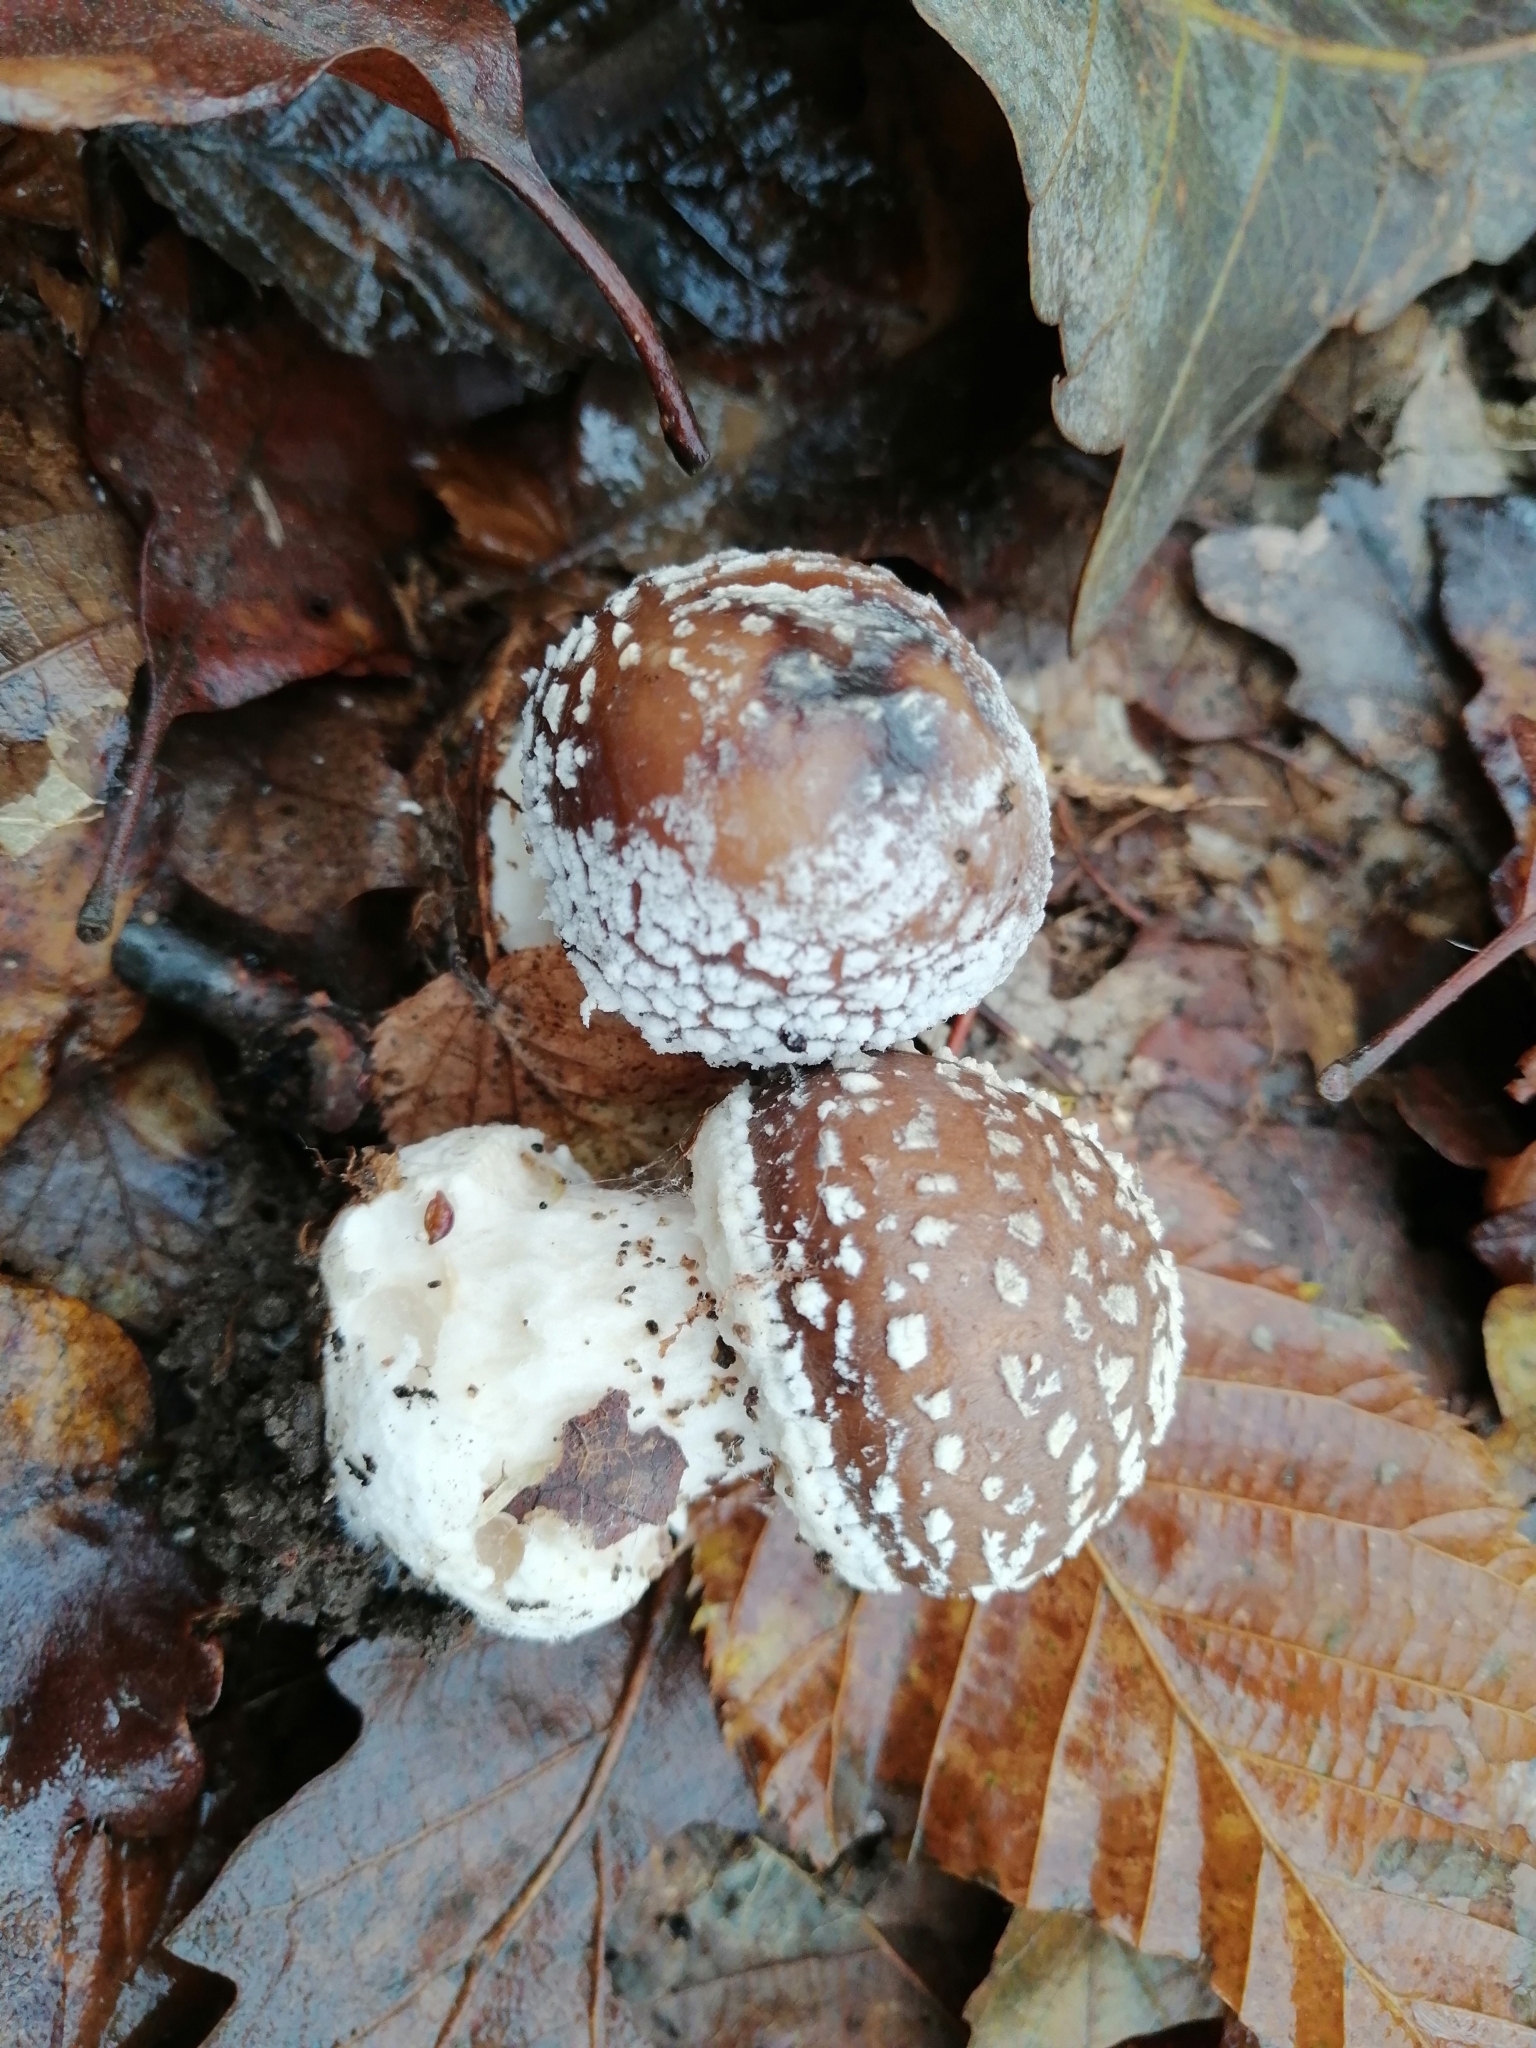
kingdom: Fungi
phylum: Basidiomycota
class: Agaricomycetes
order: Agaricales
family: Amanitaceae
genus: Amanita
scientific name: Amanita pantherina
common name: Panthercap
